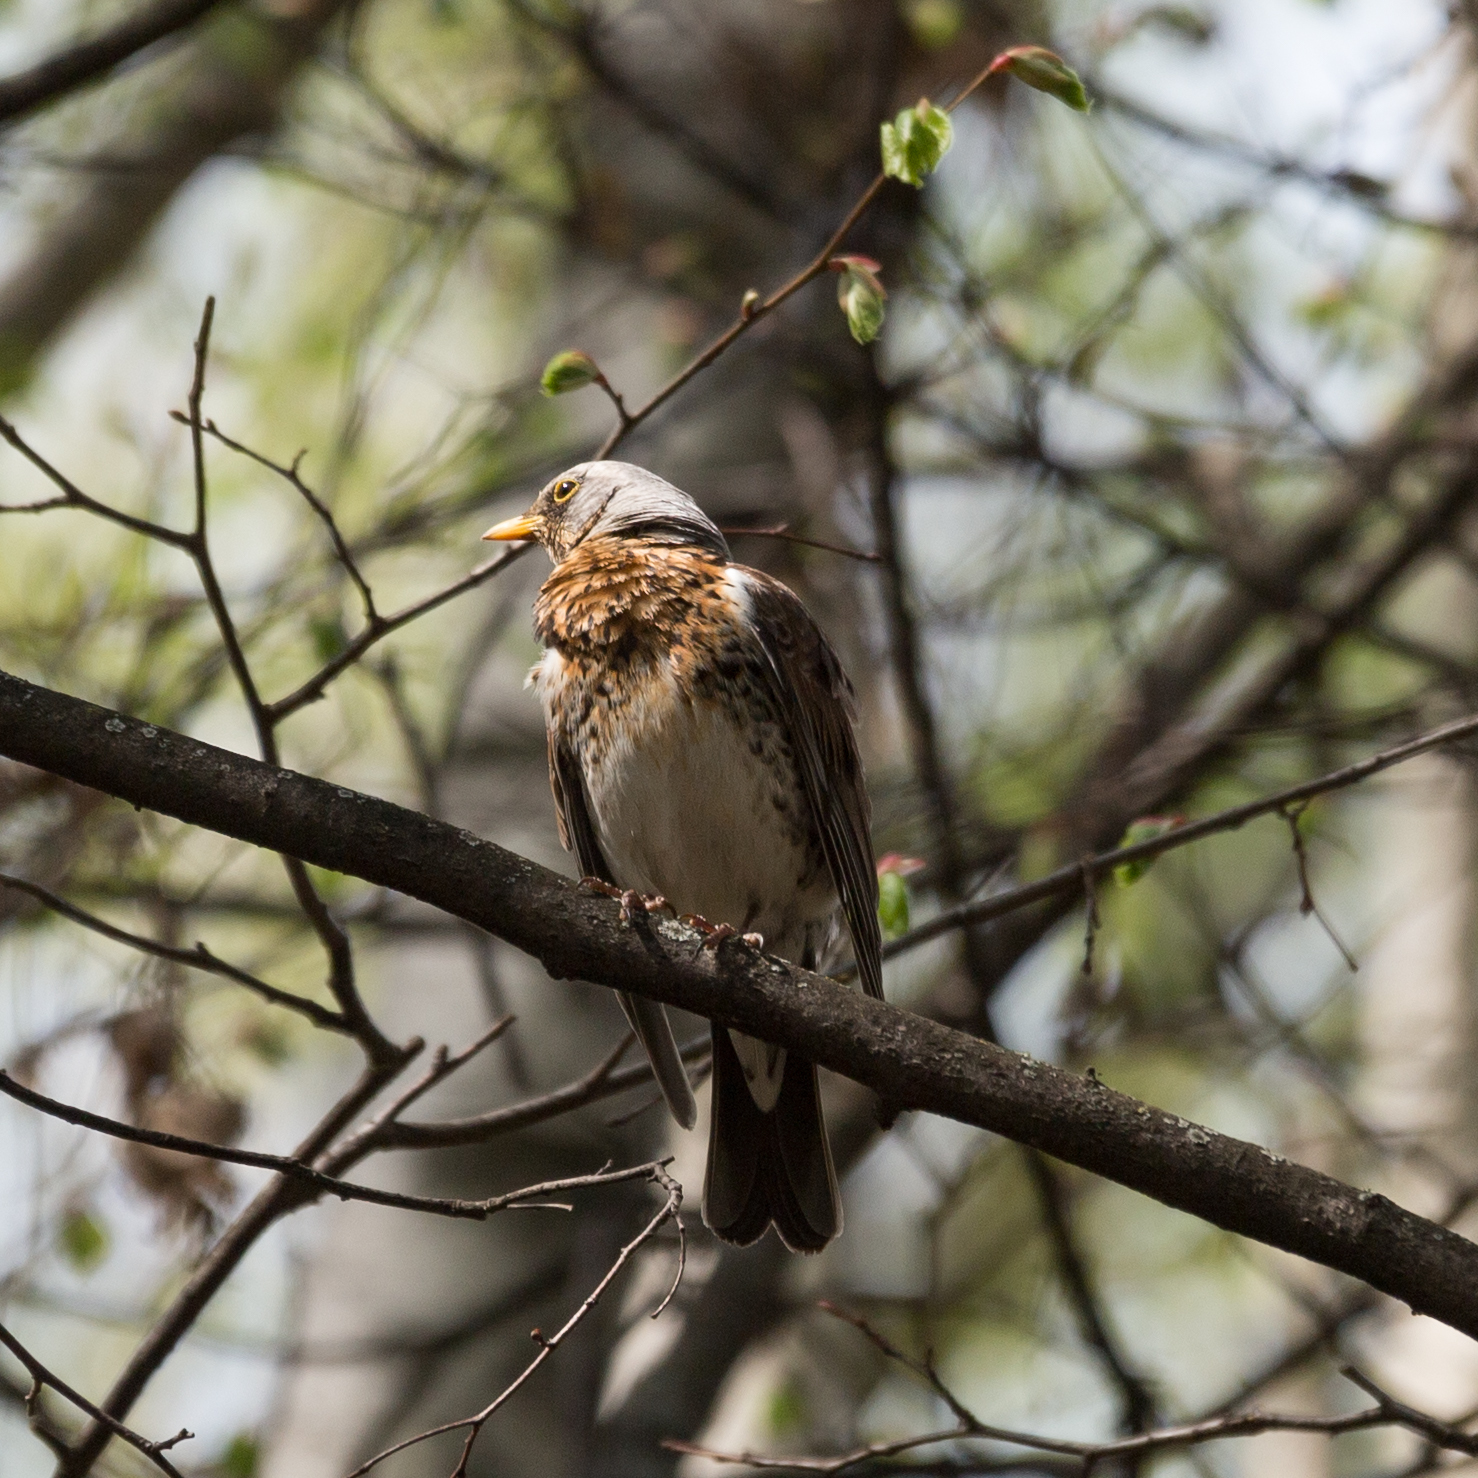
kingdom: Animalia
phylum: Chordata
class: Aves
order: Passeriformes
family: Turdidae
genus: Turdus
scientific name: Turdus pilaris
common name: Fieldfare
